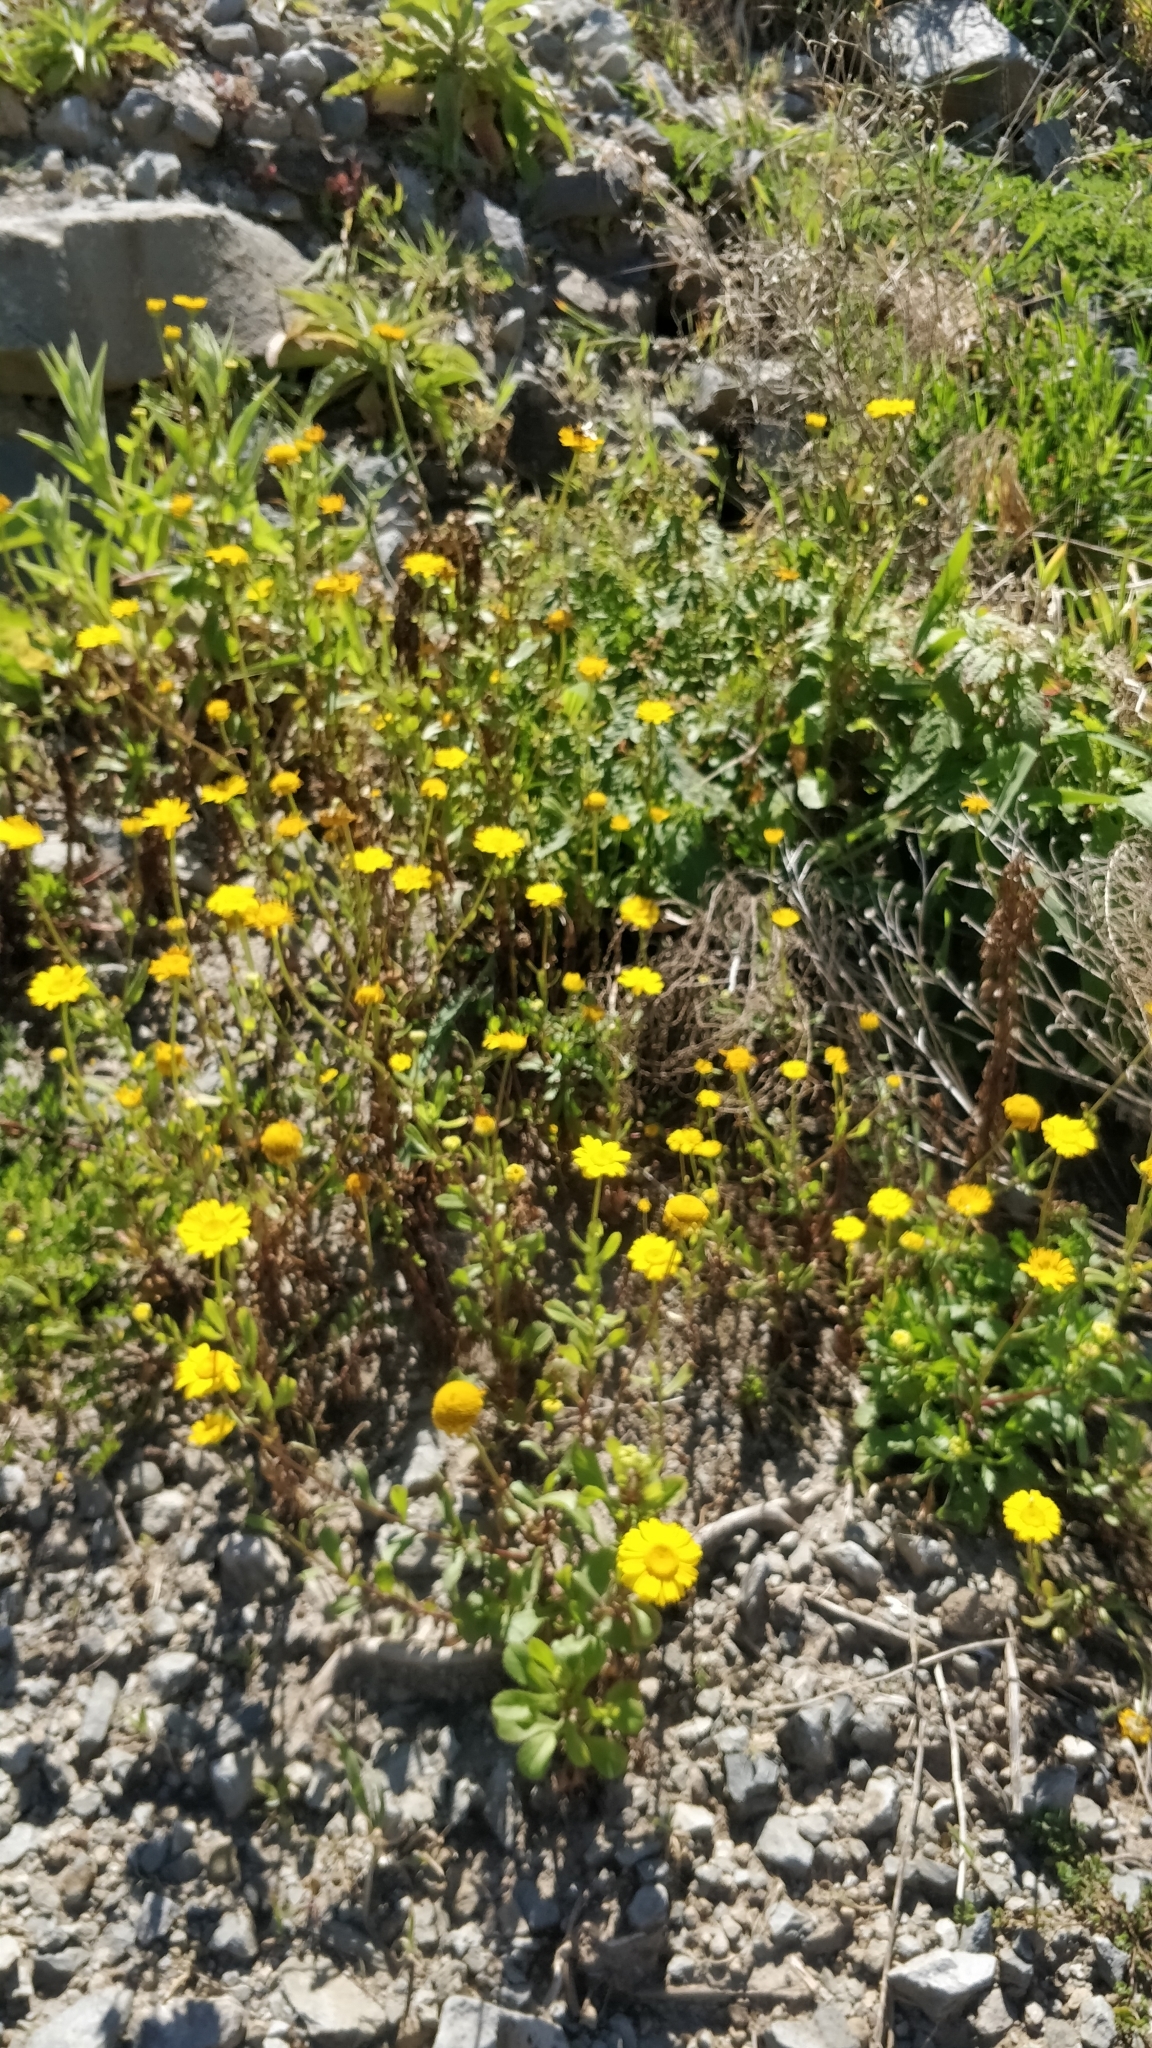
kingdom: Plantae
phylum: Tracheophyta
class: Magnoliopsida
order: Asterales
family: Asteraceae
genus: Coleostephus
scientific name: Coleostephus myconis
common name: Mediterranean marigold
